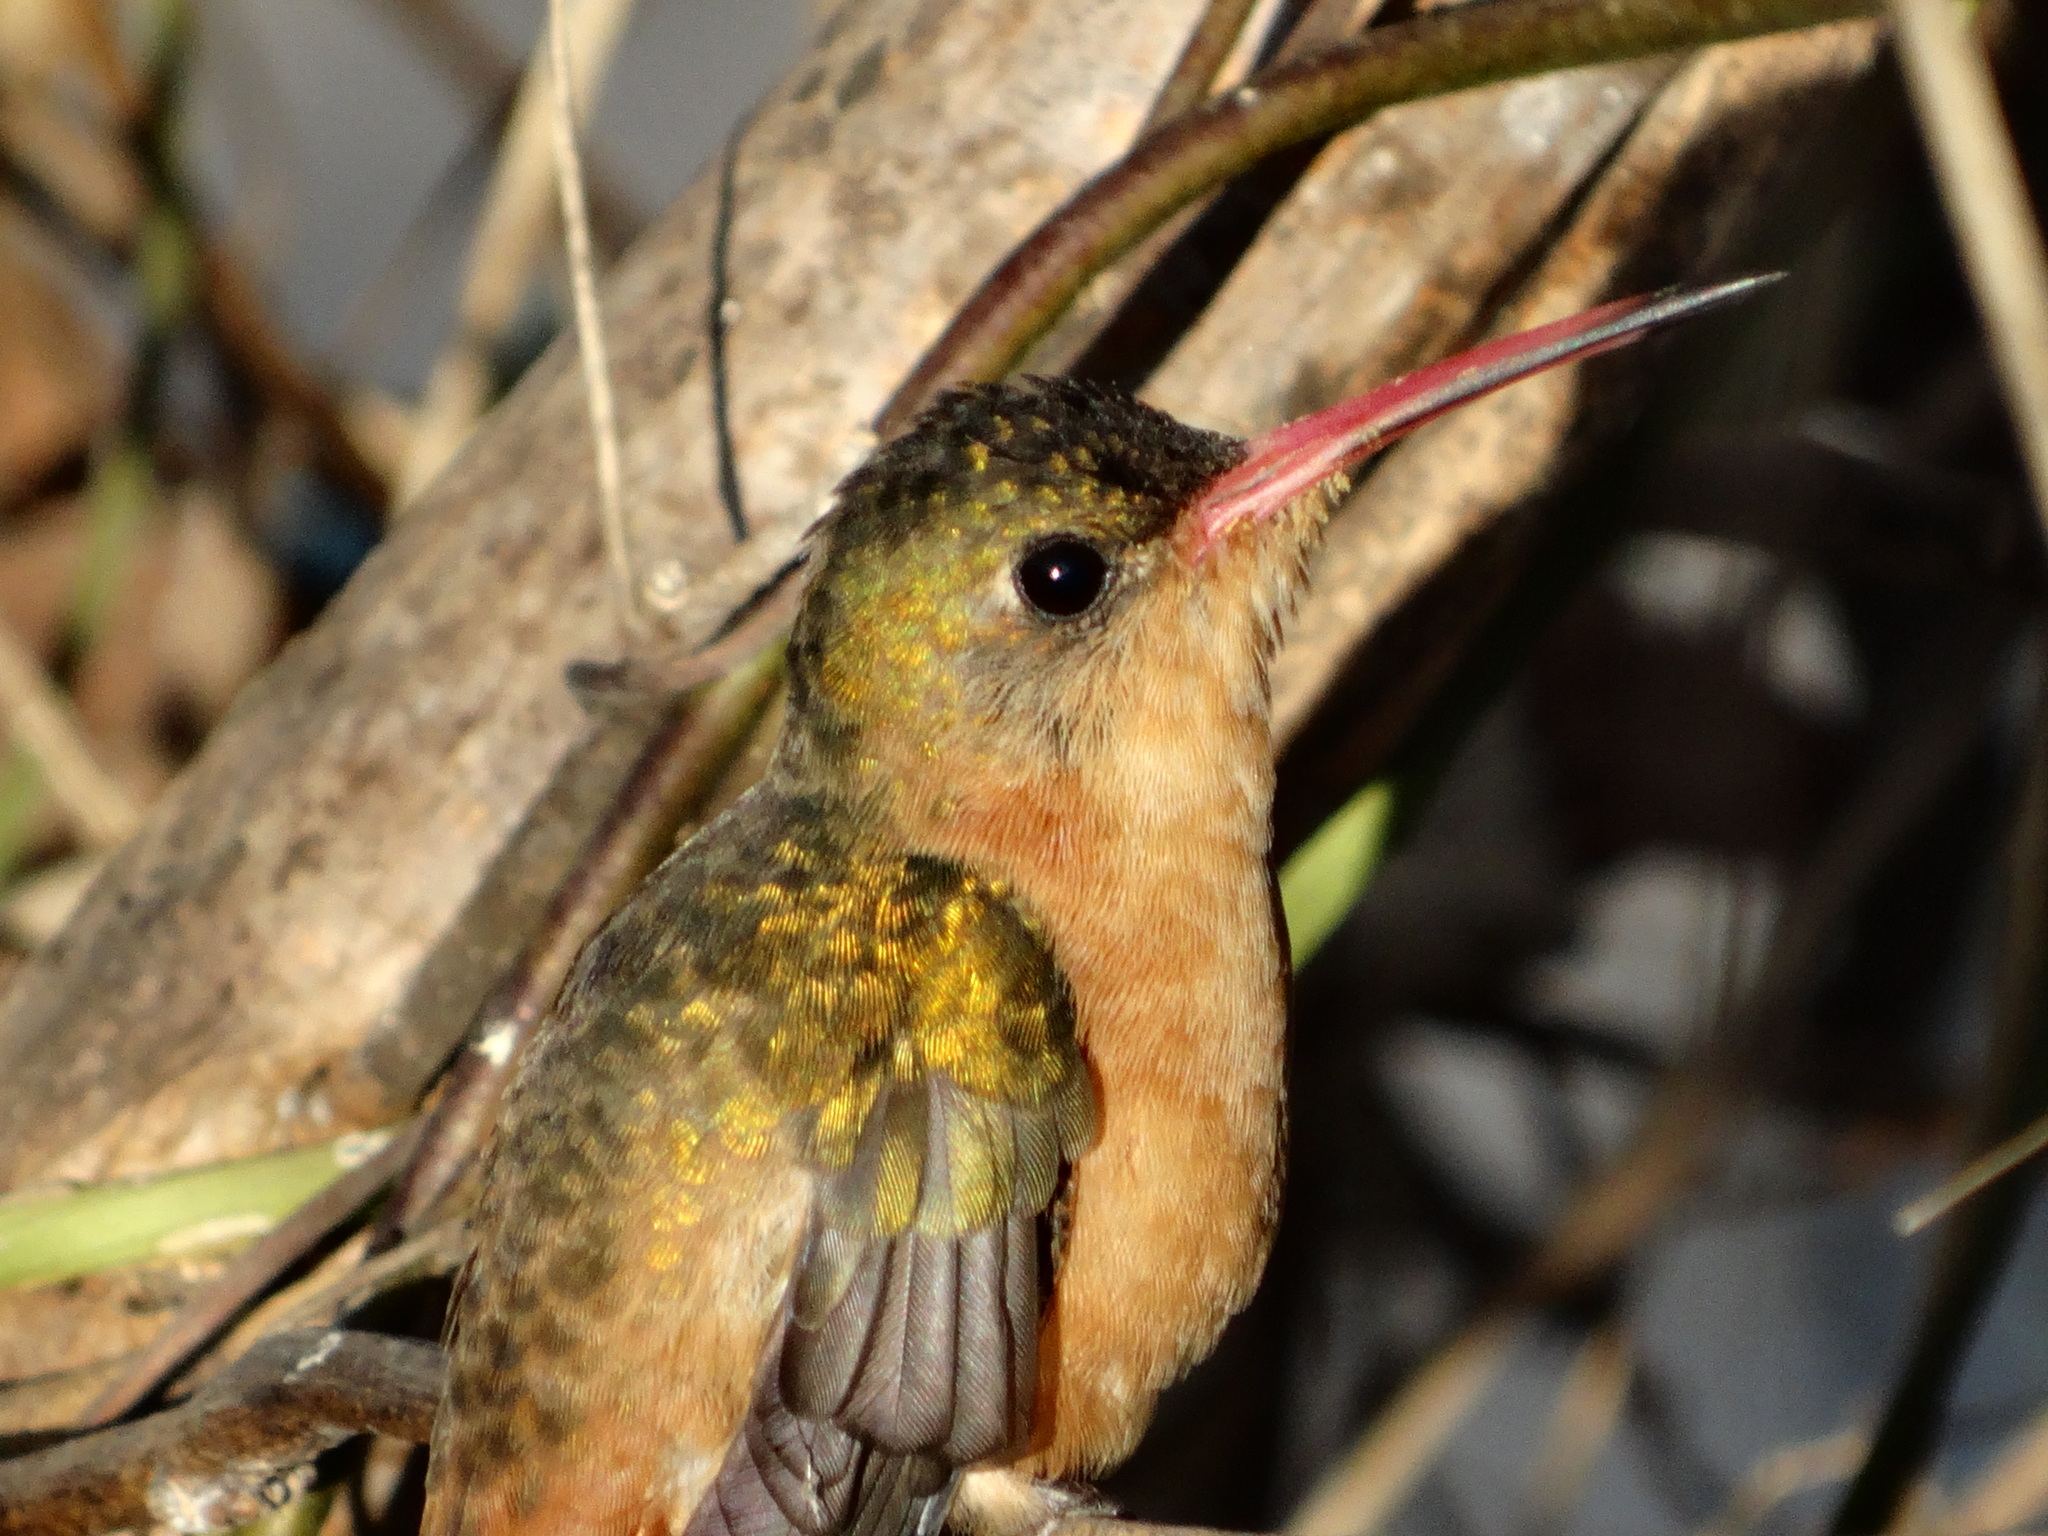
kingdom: Animalia
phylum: Chordata
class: Aves
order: Apodiformes
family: Trochilidae
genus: Amazilia
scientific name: Amazilia rutila
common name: Cinnamon hummingbird
